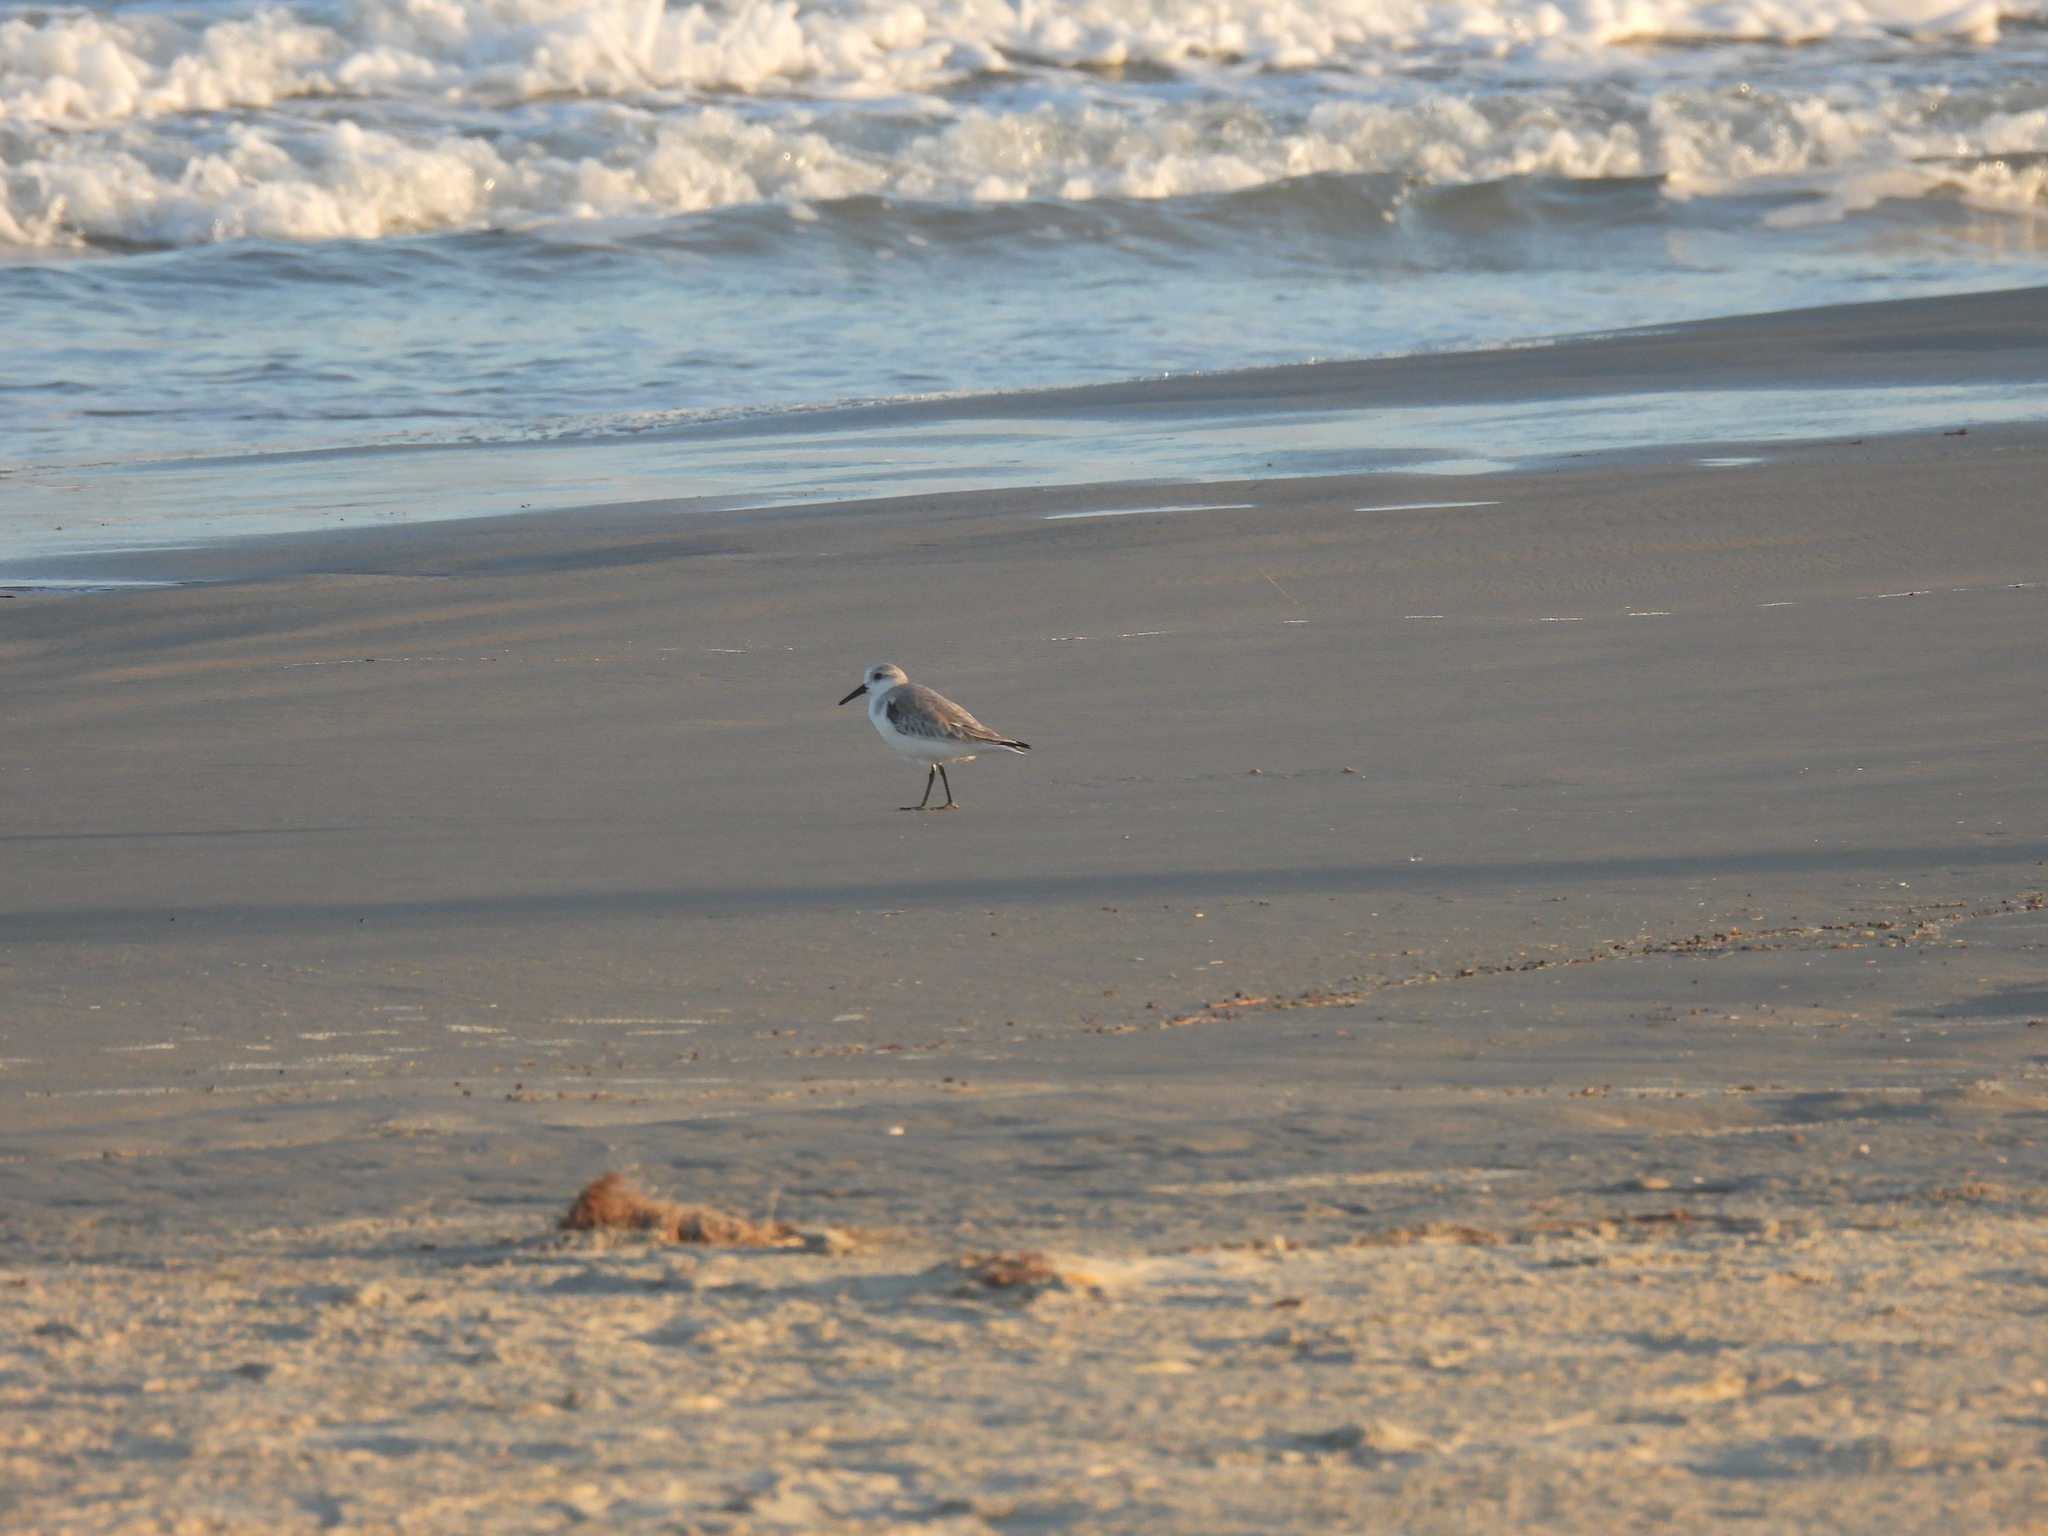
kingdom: Animalia
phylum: Chordata
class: Aves
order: Charadriiformes
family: Scolopacidae
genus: Calidris
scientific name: Calidris alba
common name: Sanderling
